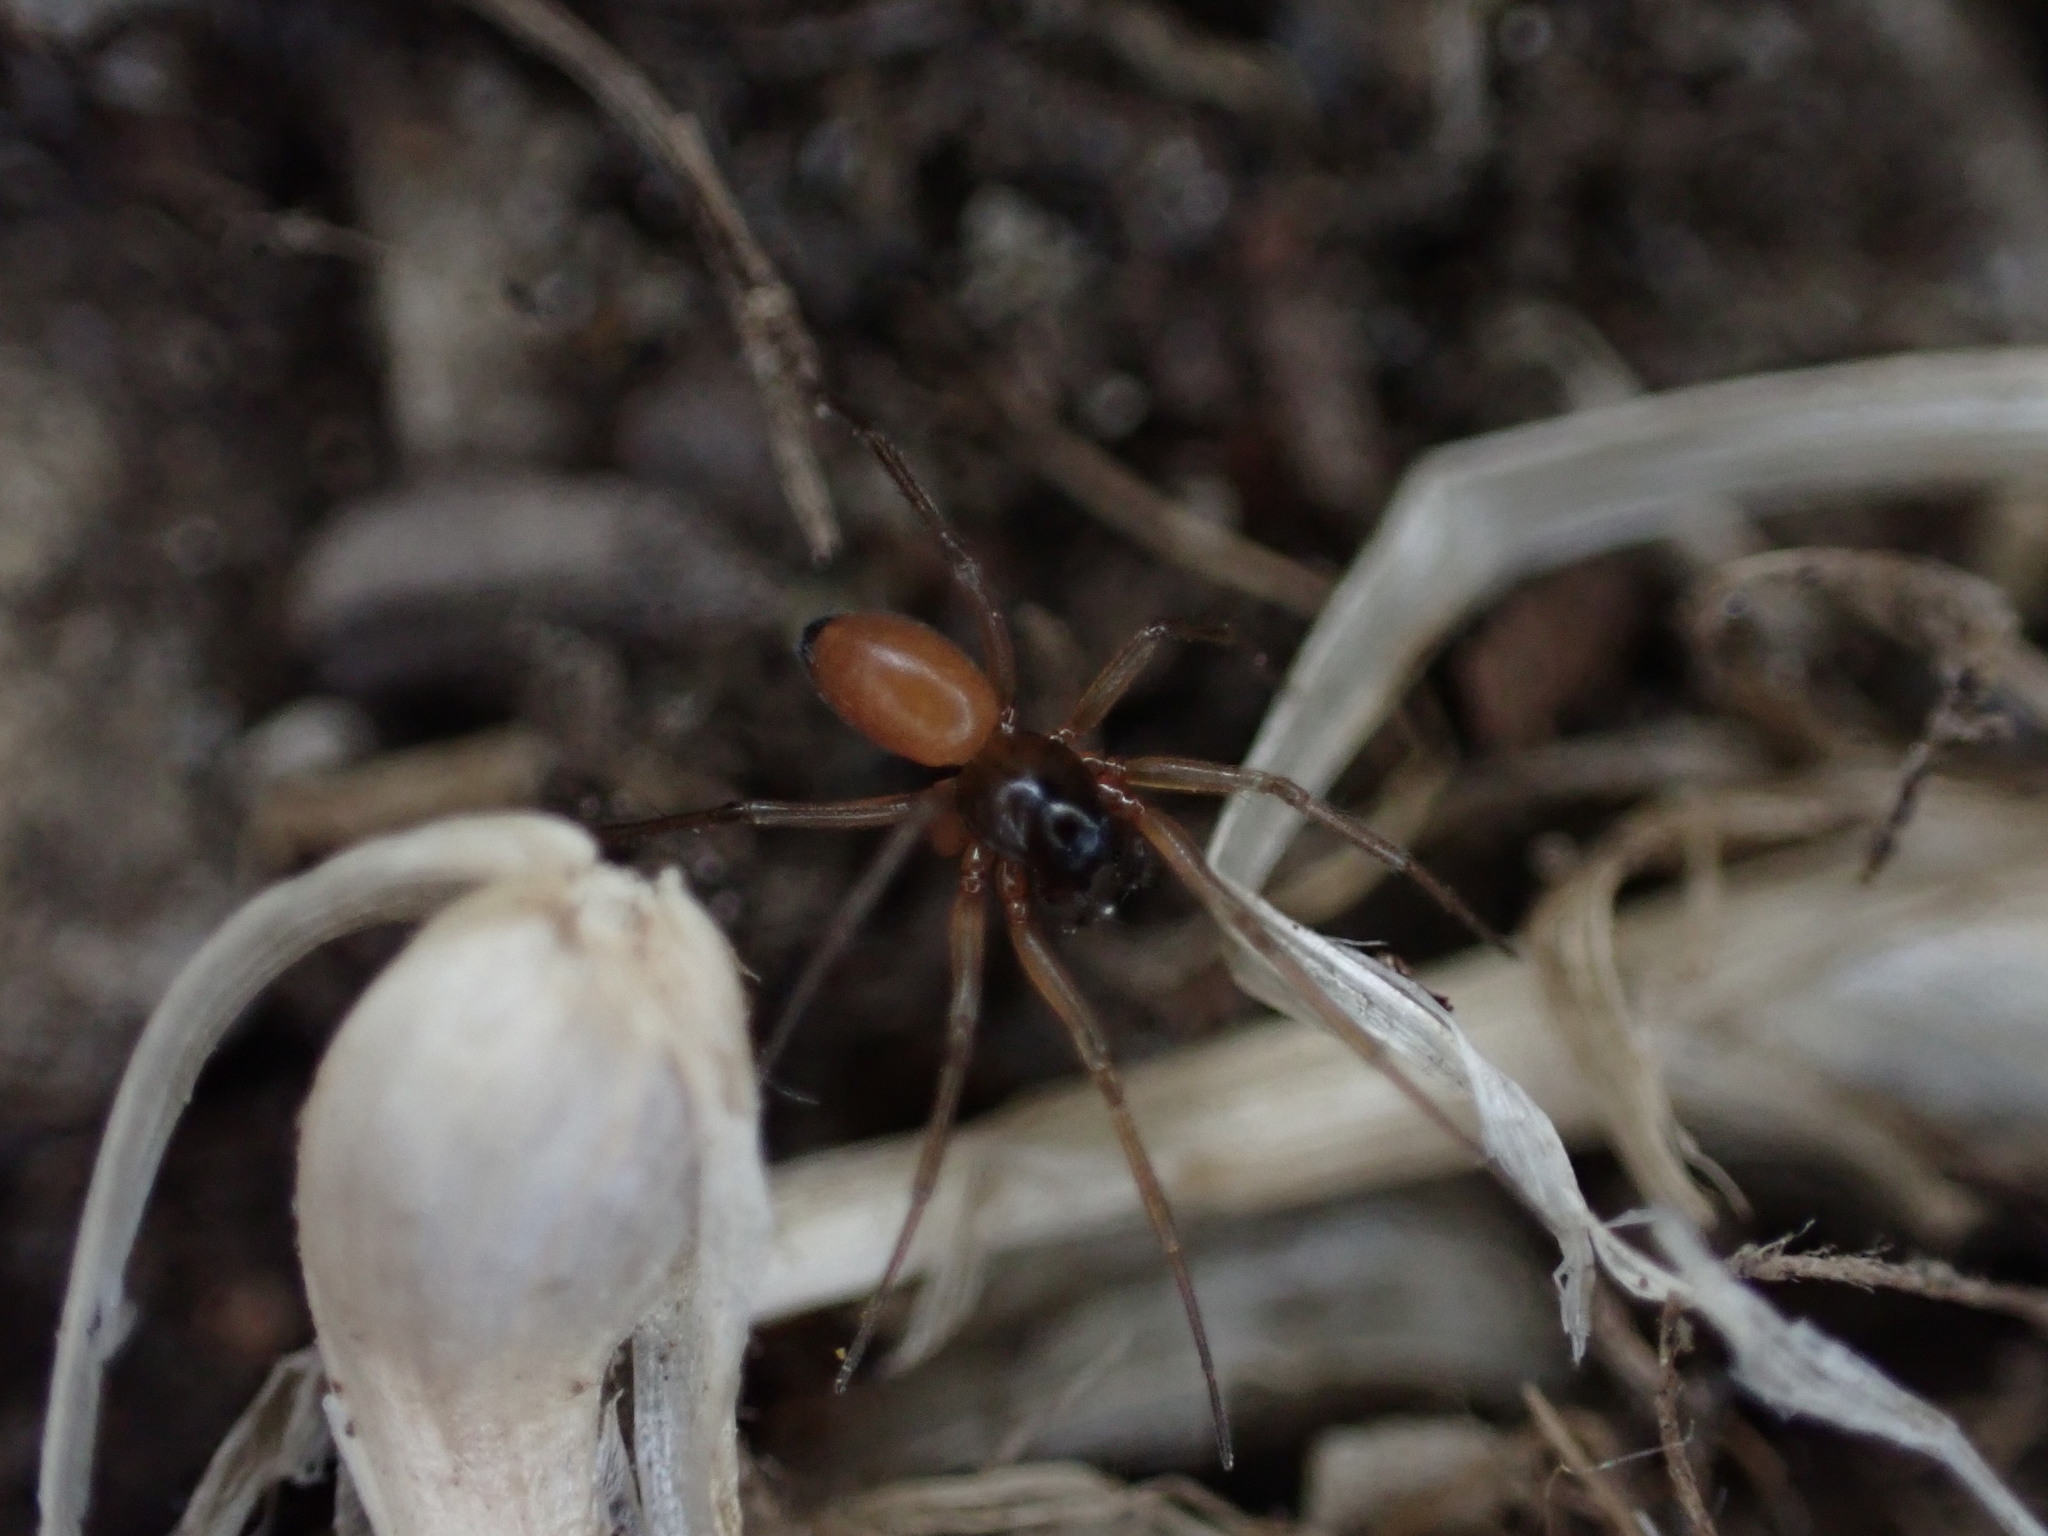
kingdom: Animalia
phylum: Arthropoda
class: Arachnida
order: Araneae
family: Linyphiidae
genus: Ostearius
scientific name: Ostearius melanopygius
